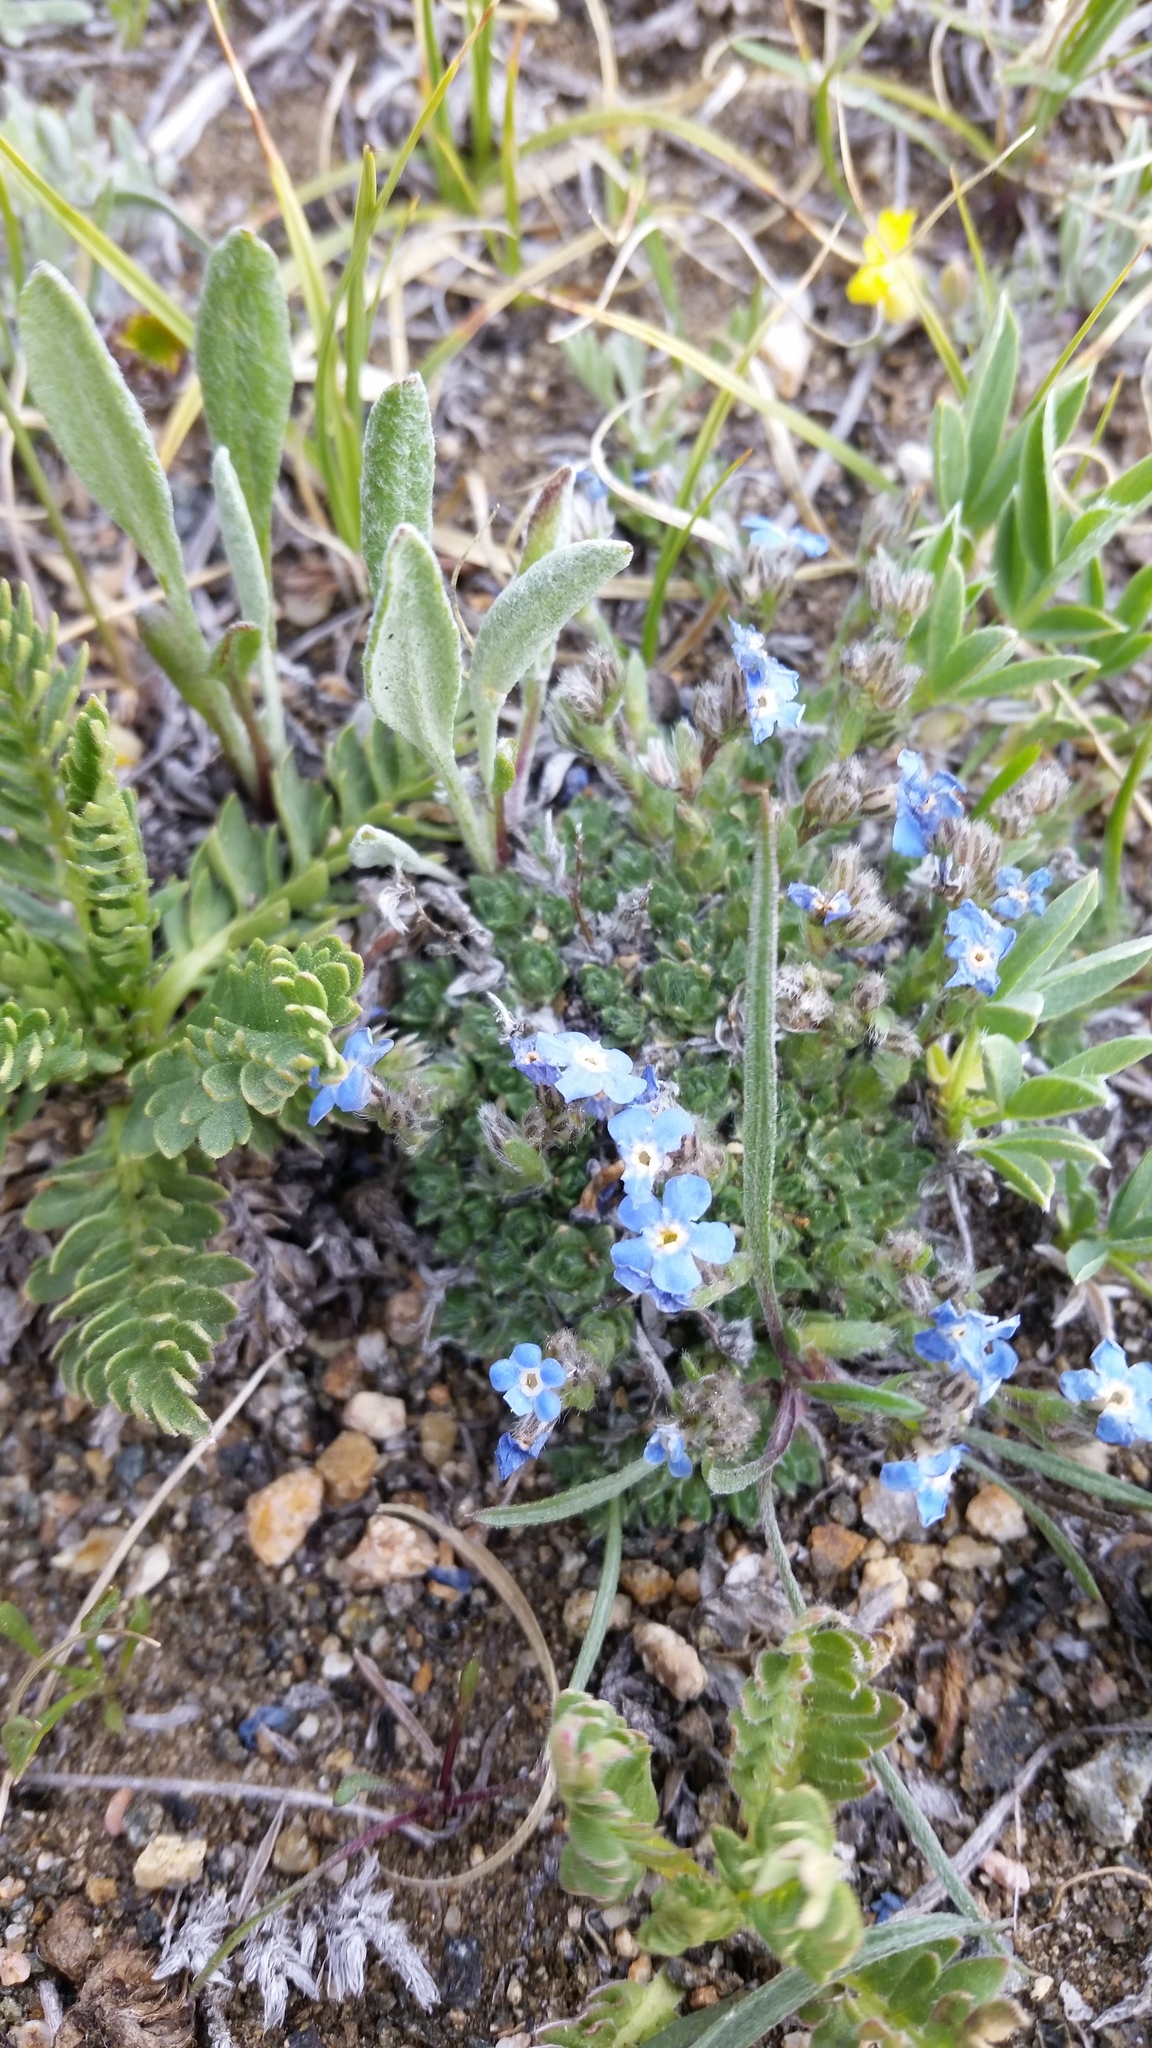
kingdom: Plantae
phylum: Tracheophyta
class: Magnoliopsida
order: Boraginales
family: Boraginaceae
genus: Eritrichium
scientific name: Eritrichium argenteum
